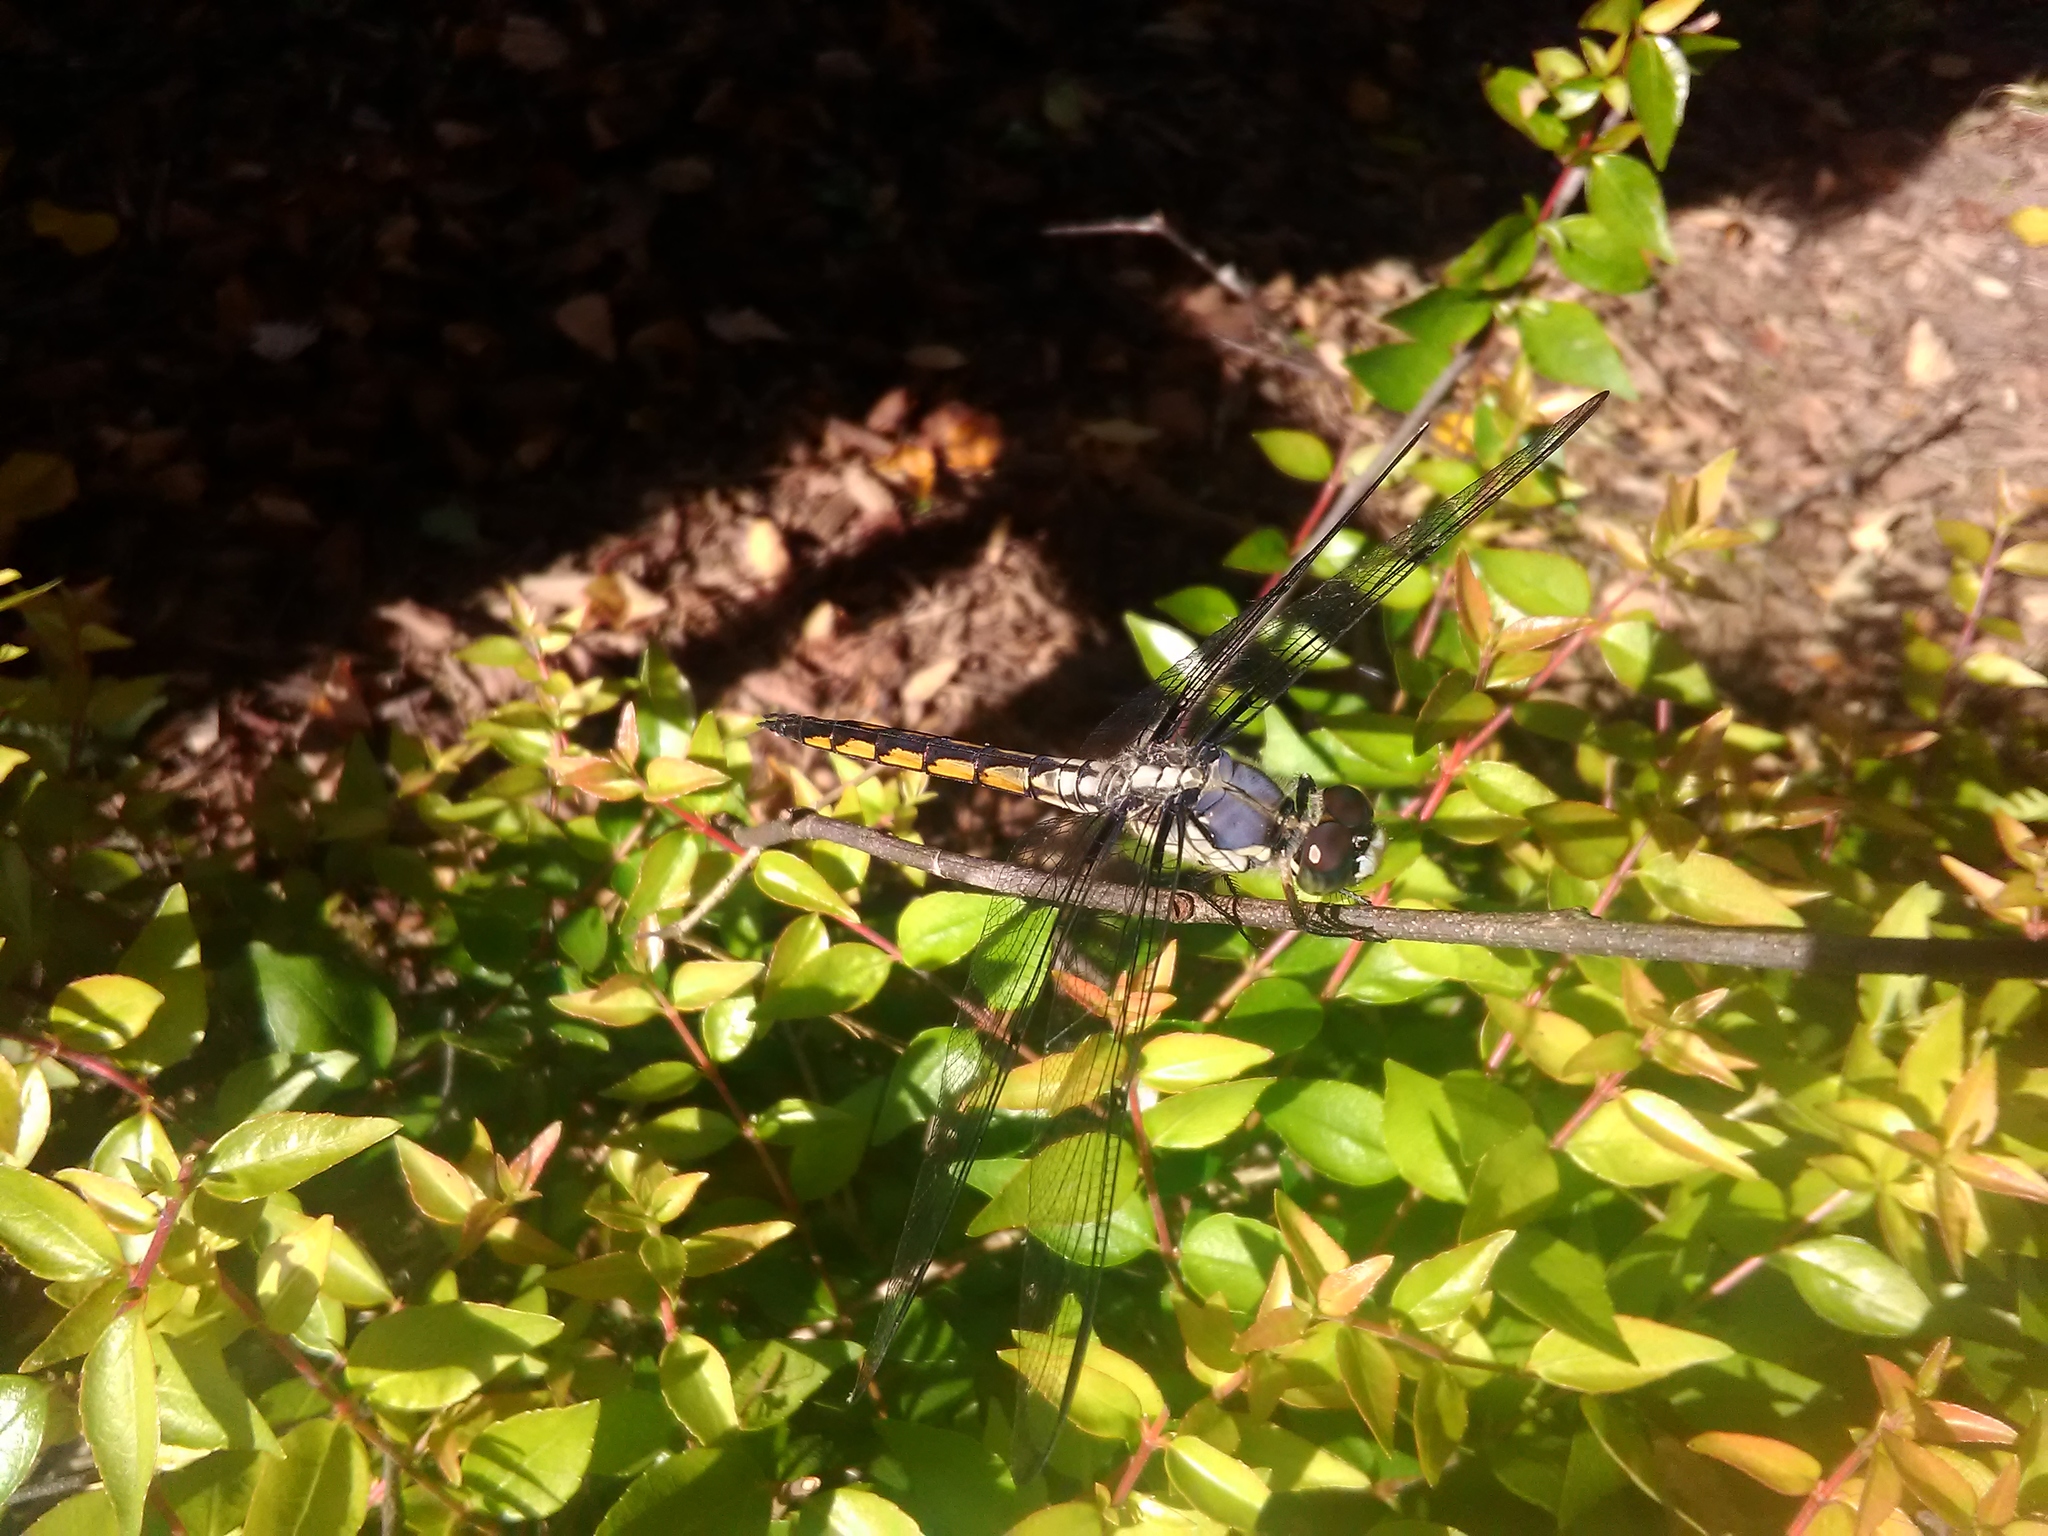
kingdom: Animalia
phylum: Arthropoda
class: Insecta
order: Odonata
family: Libellulidae
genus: Libellula
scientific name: Libellula vibrans
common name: Great blue skimmer
